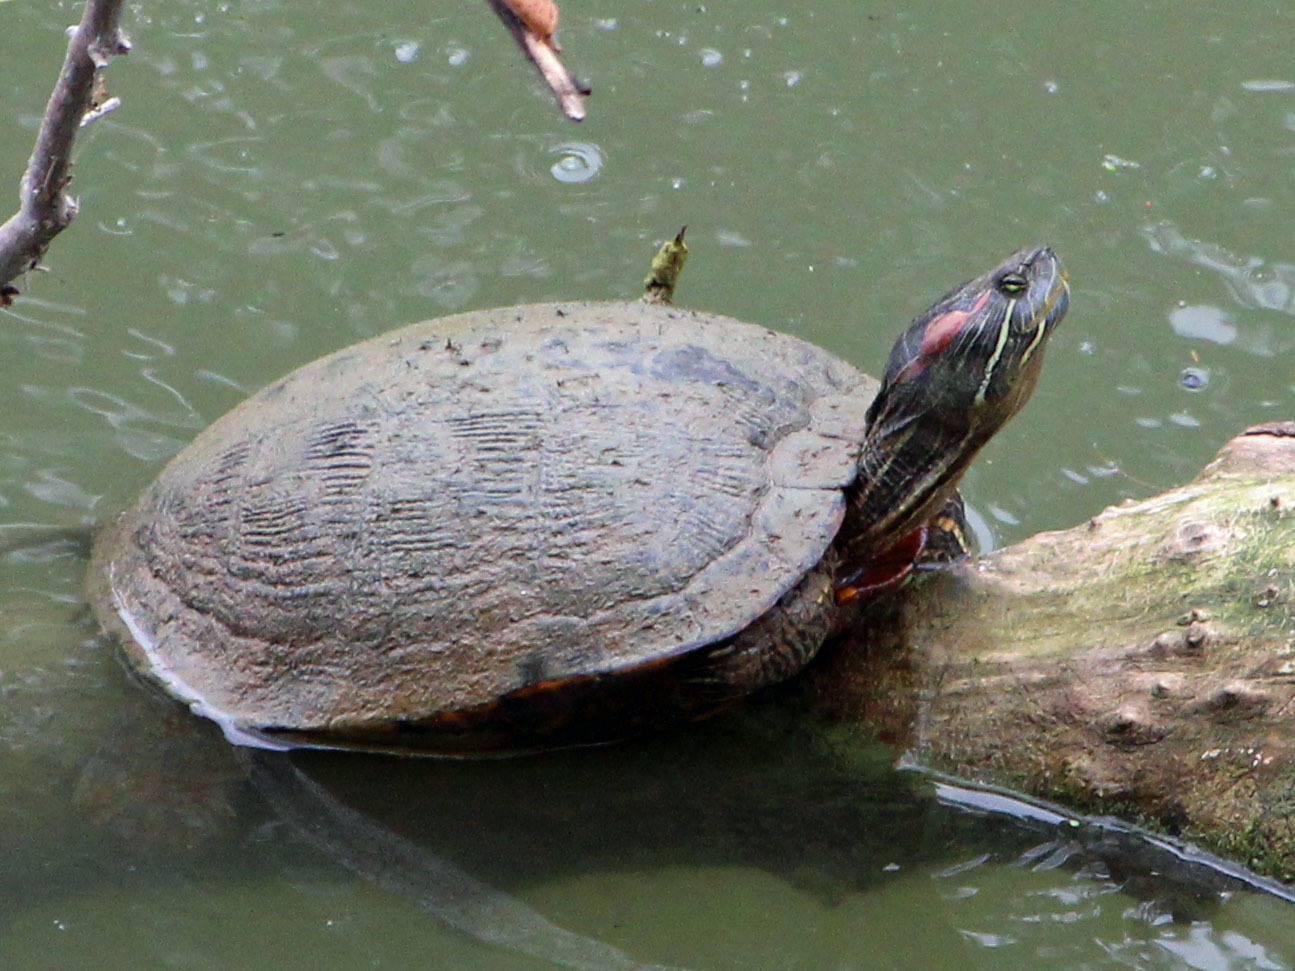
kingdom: Animalia
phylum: Chordata
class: Testudines
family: Emydidae
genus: Trachemys
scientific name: Trachemys scripta
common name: Slider
